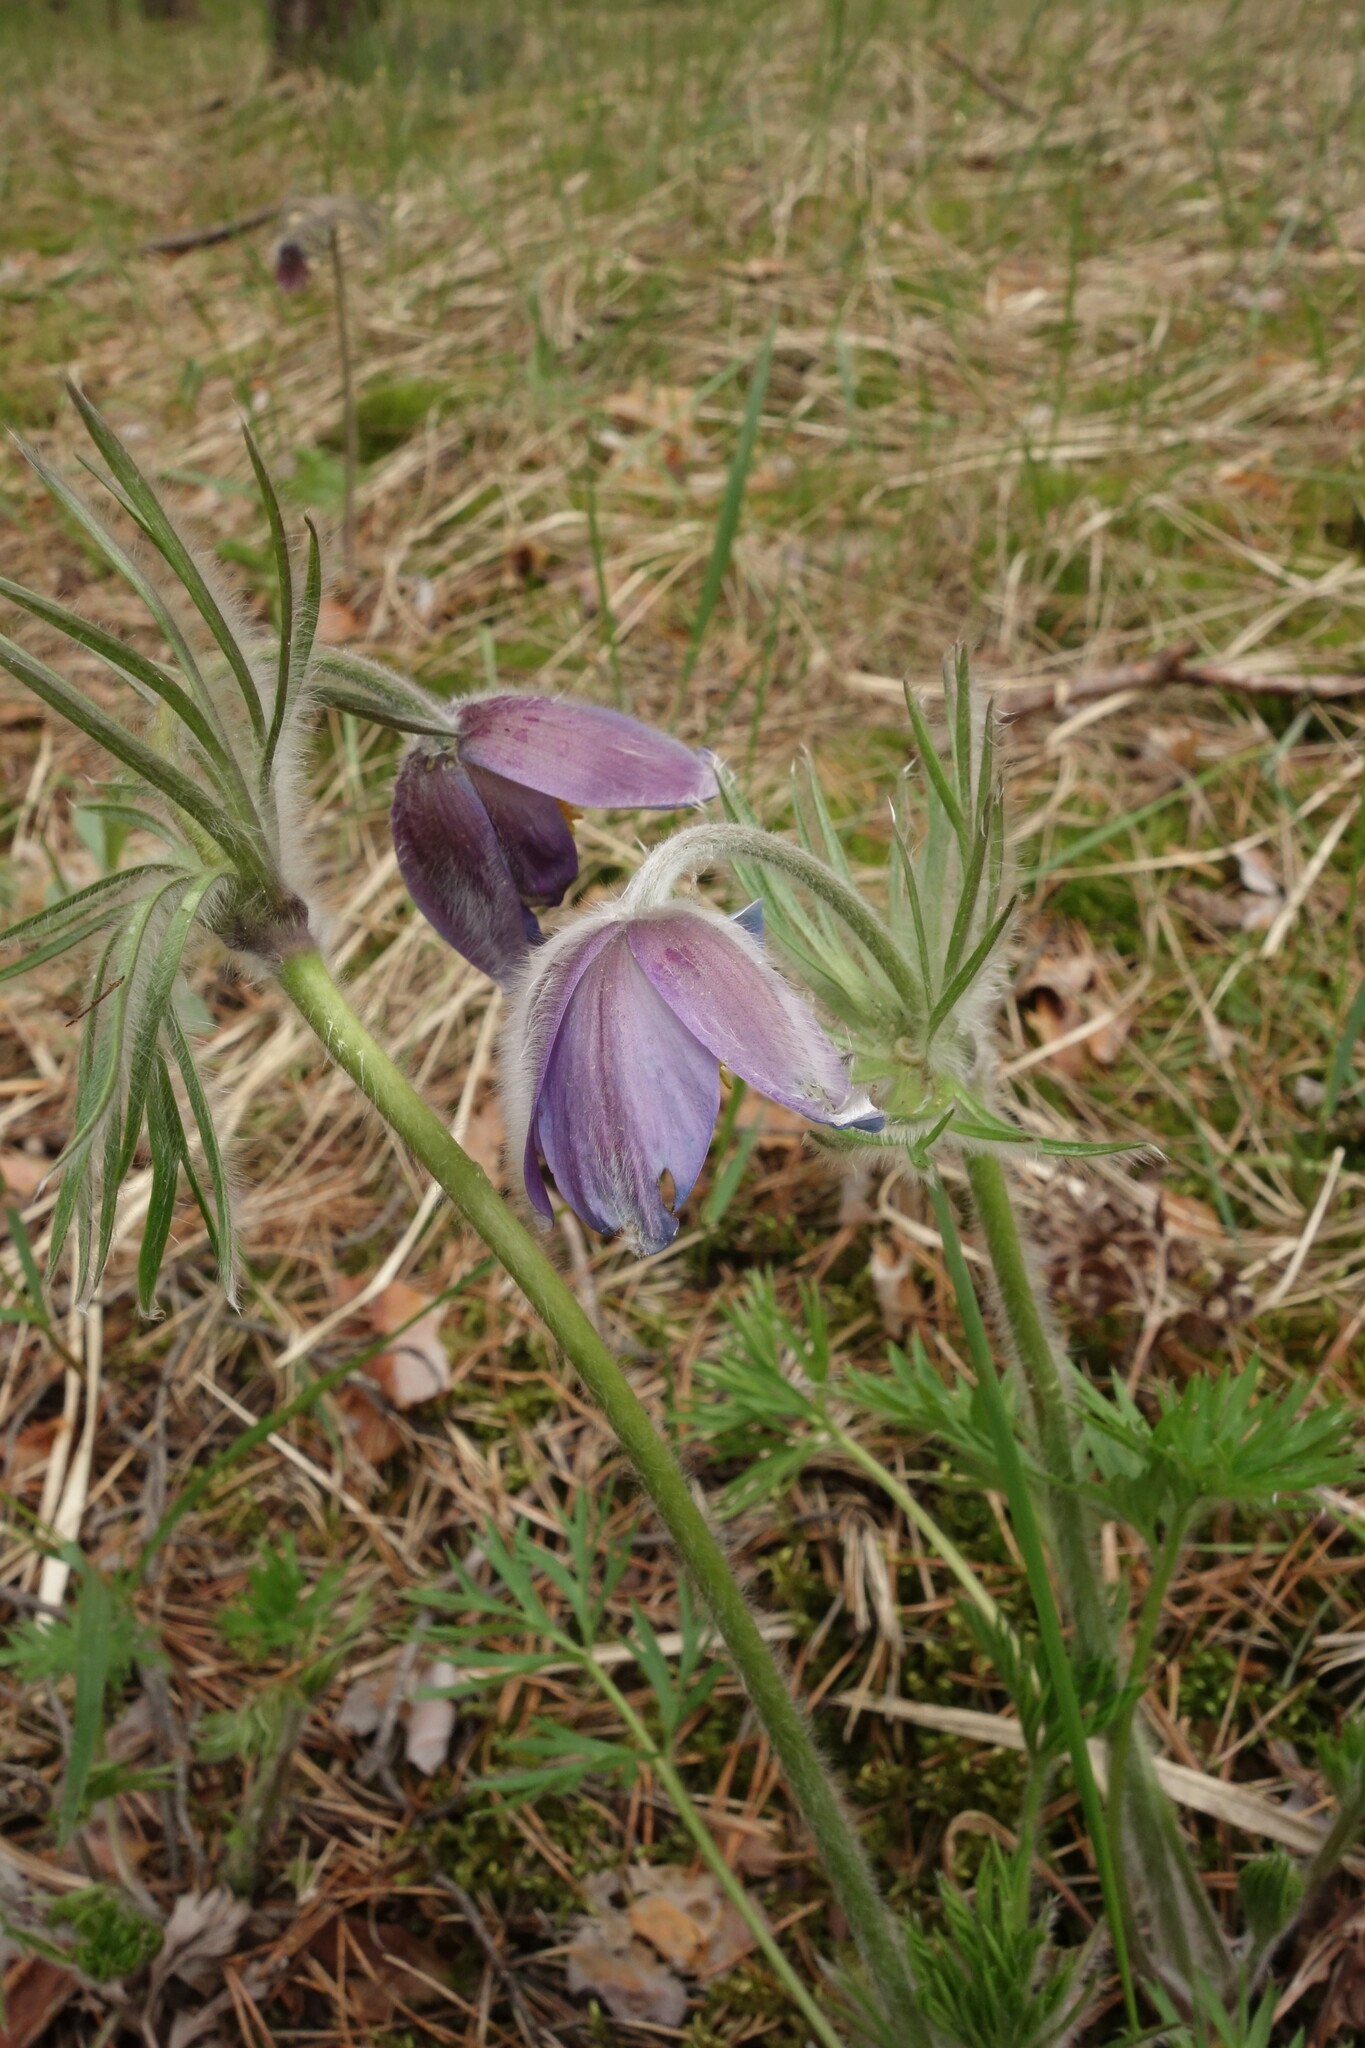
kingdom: Plantae
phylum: Tracheophyta
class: Magnoliopsida
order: Ranunculales
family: Ranunculaceae
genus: Pulsatilla
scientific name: Pulsatilla wolfgangiana
